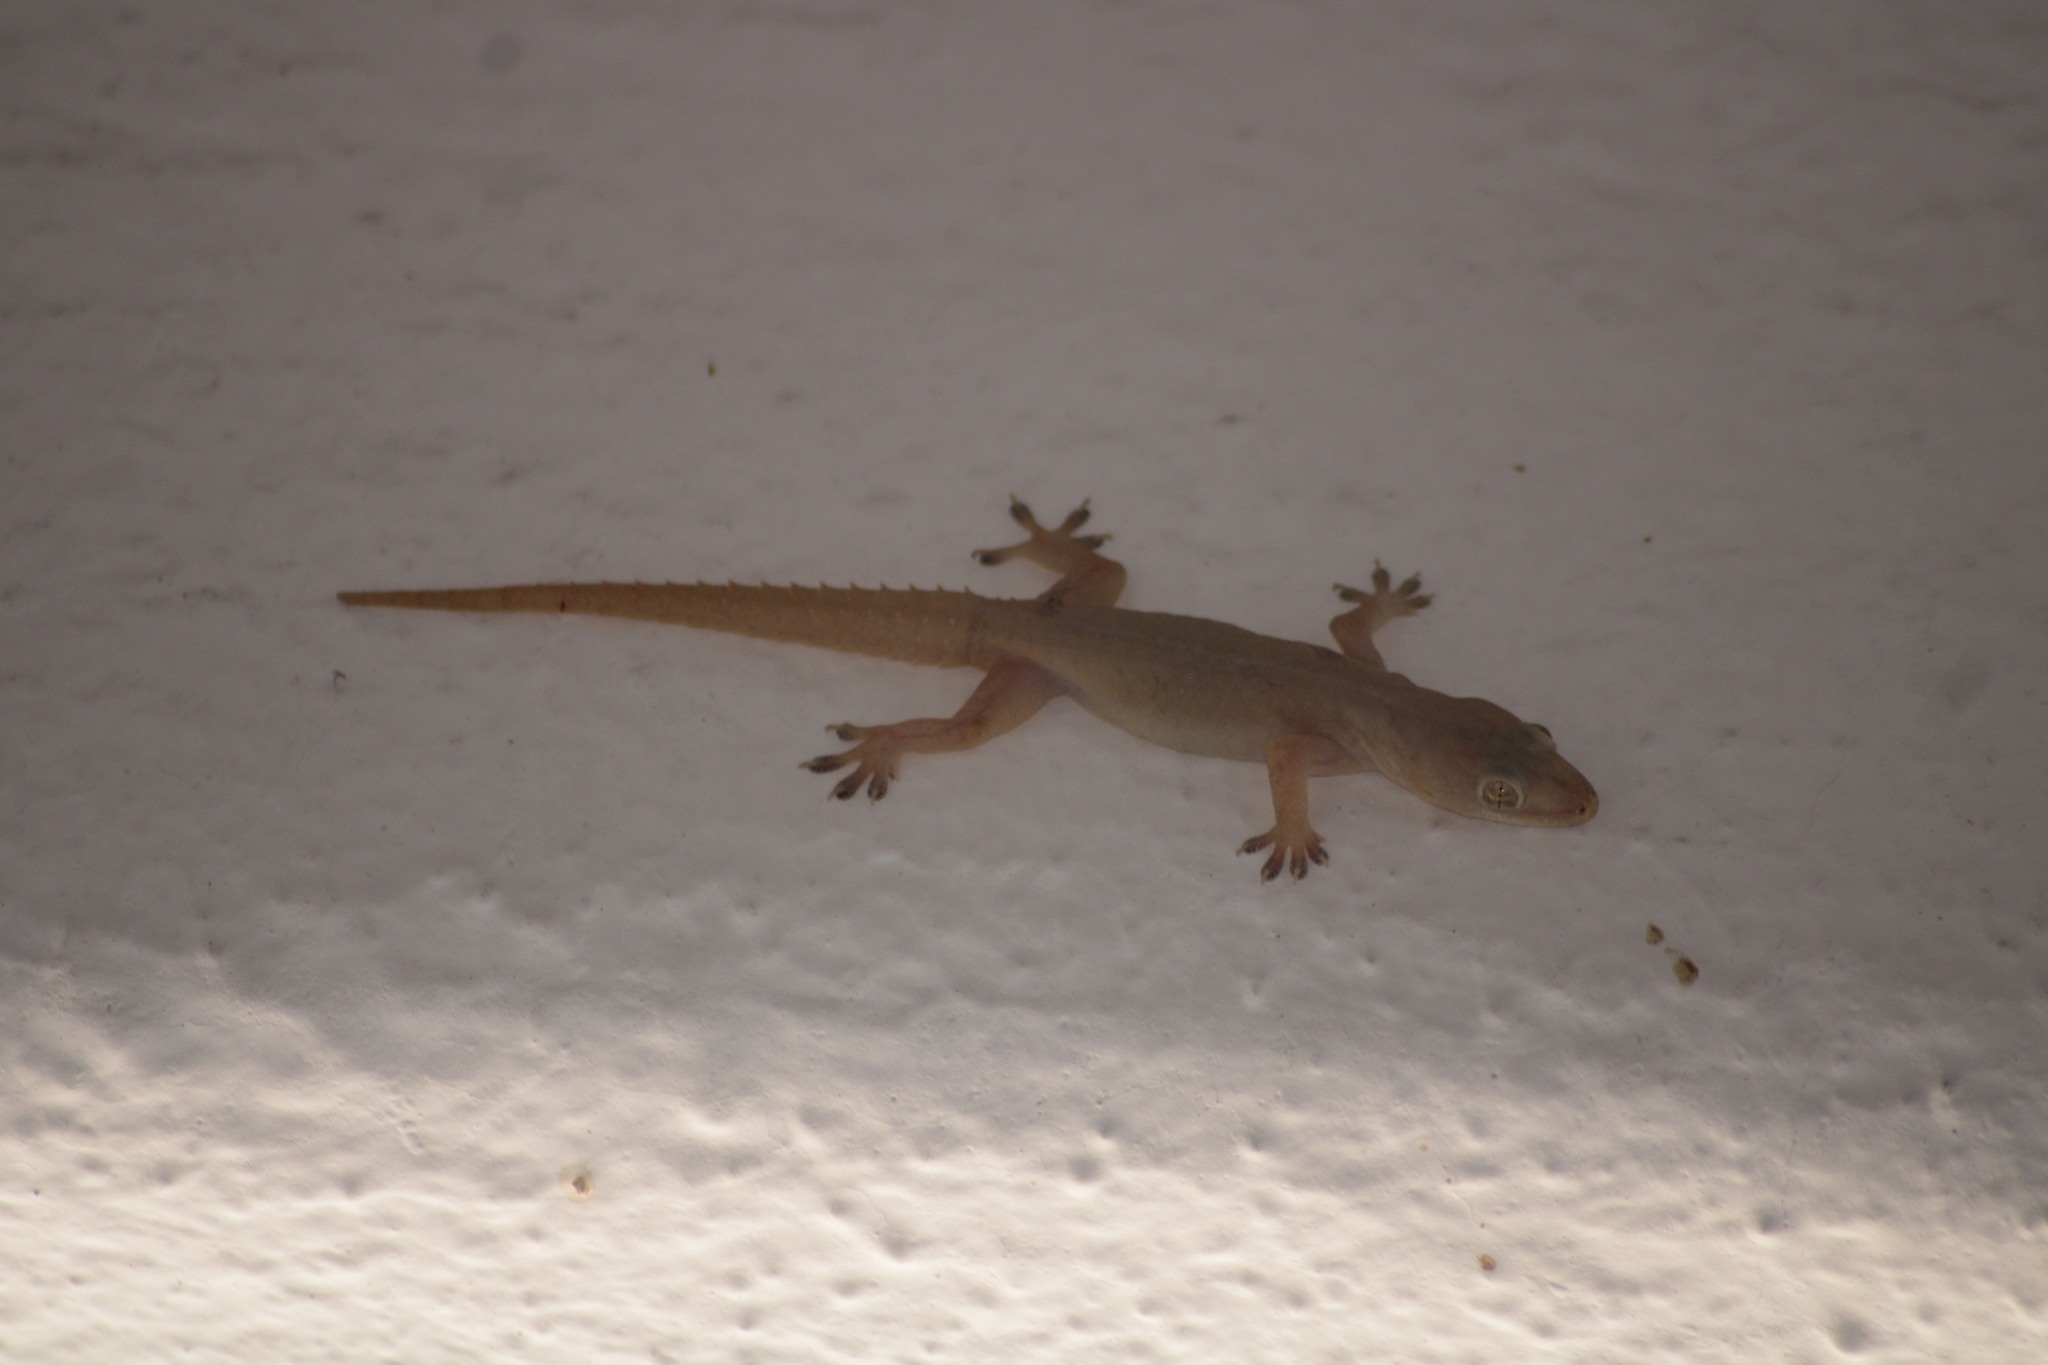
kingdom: Animalia
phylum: Chordata
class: Squamata
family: Gekkonidae
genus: Hemidactylus
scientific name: Hemidactylus frenatus
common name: Common house gecko
